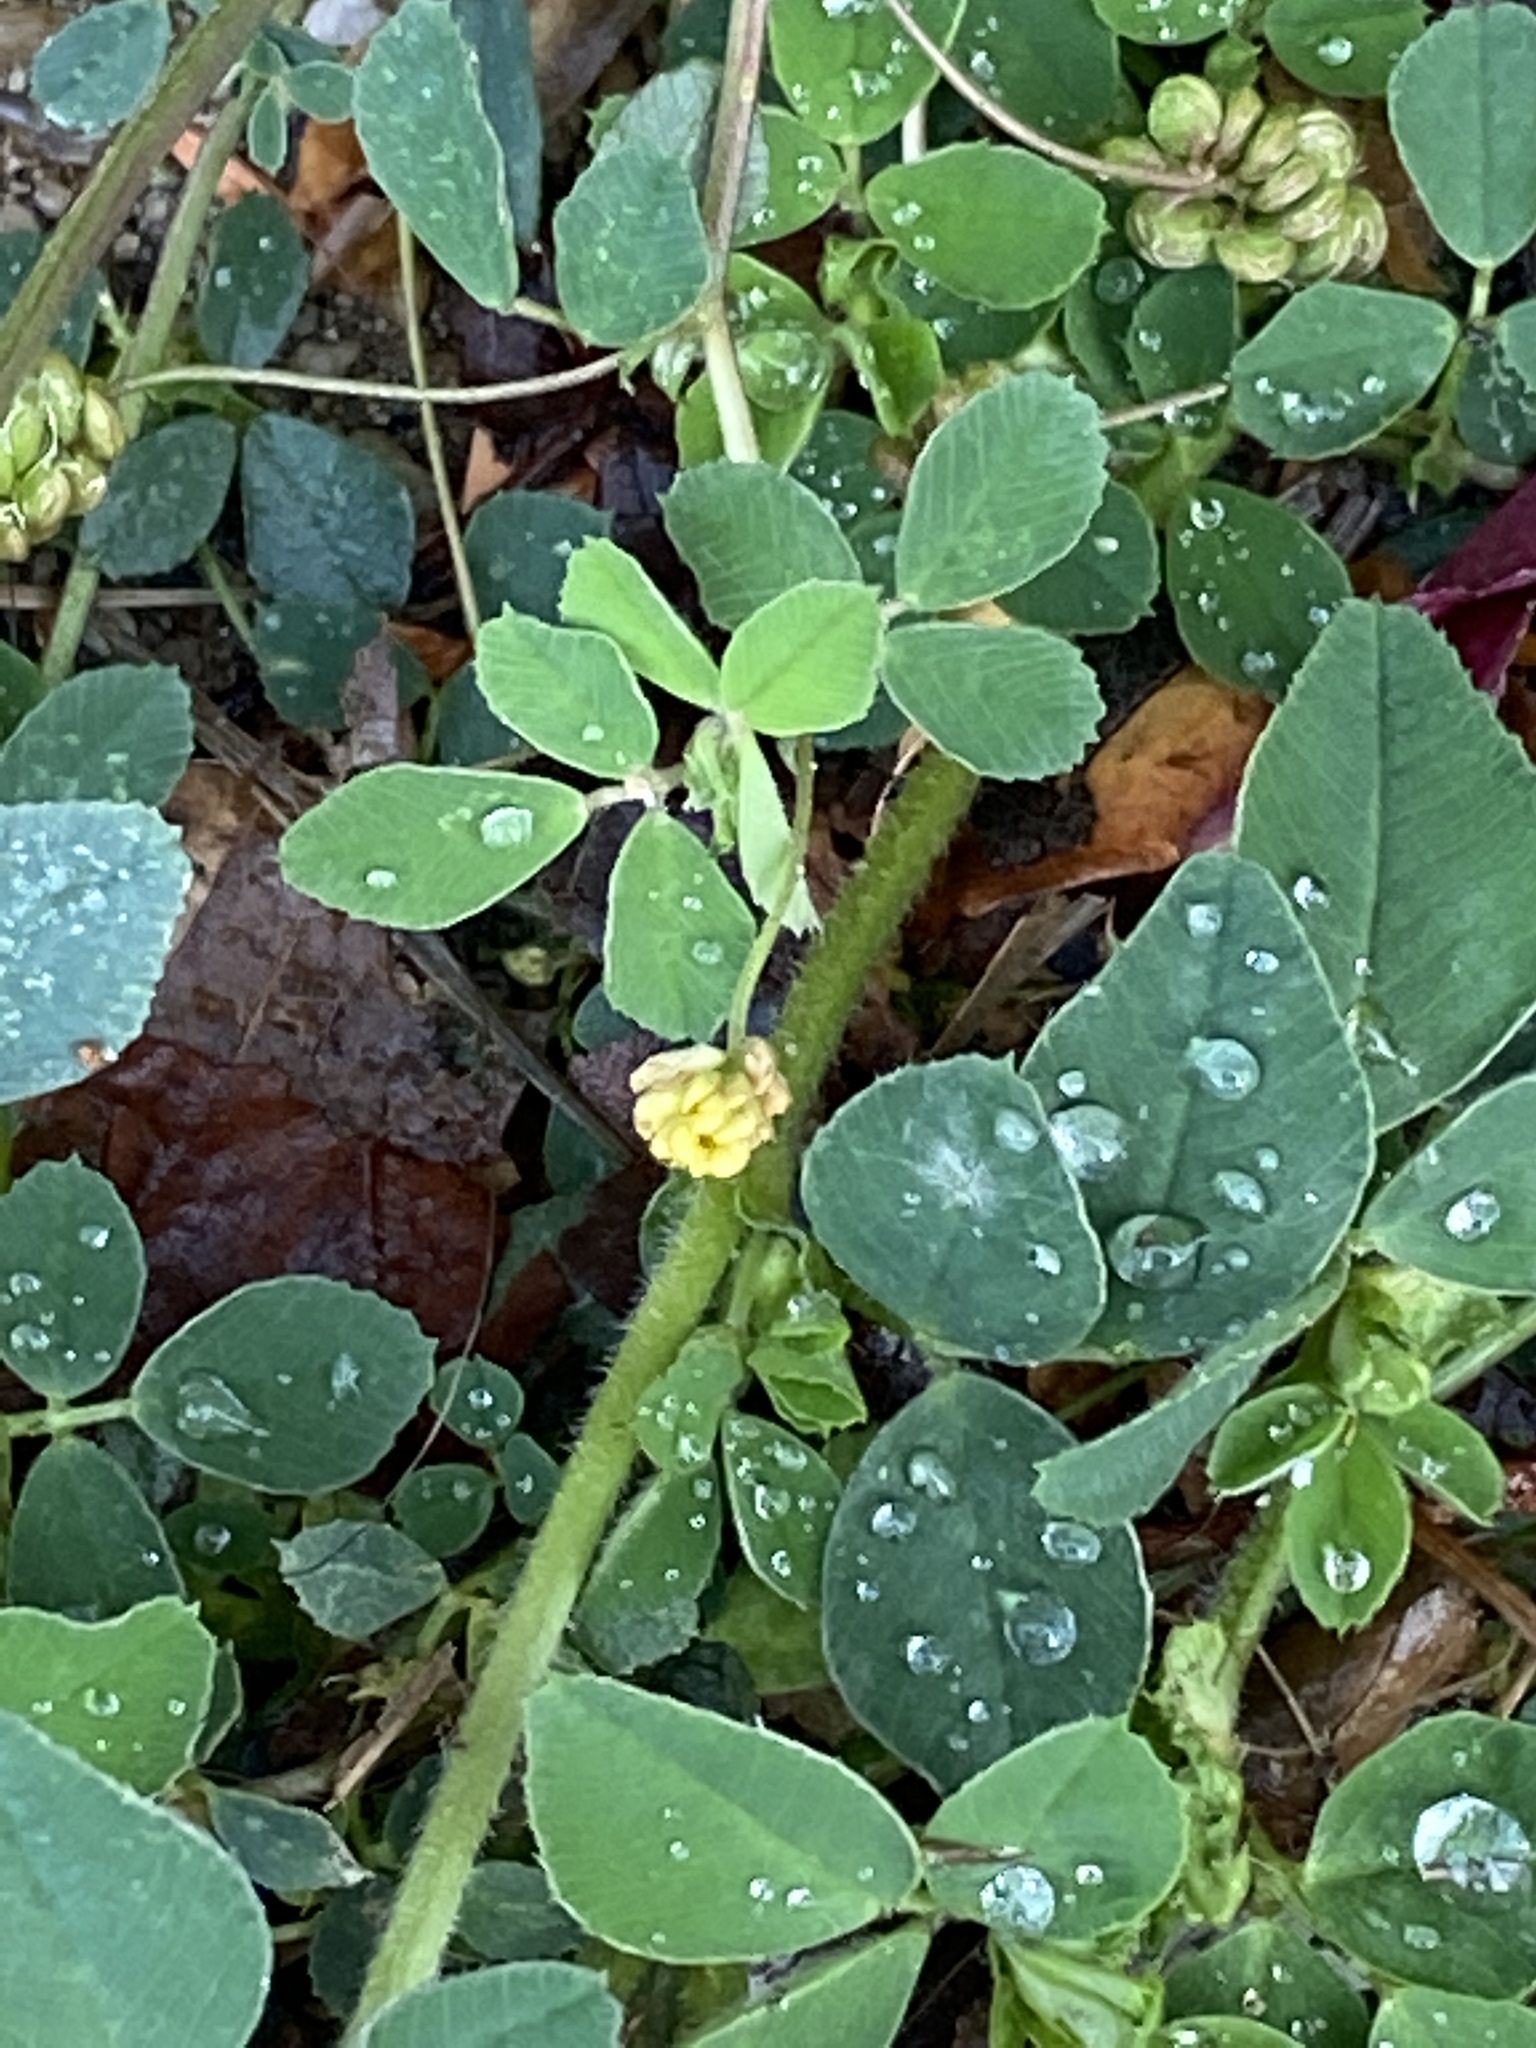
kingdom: Plantae
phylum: Tracheophyta
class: Magnoliopsida
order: Fabales
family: Fabaceae
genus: Medicago
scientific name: Medicago lupulina
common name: Black medick
